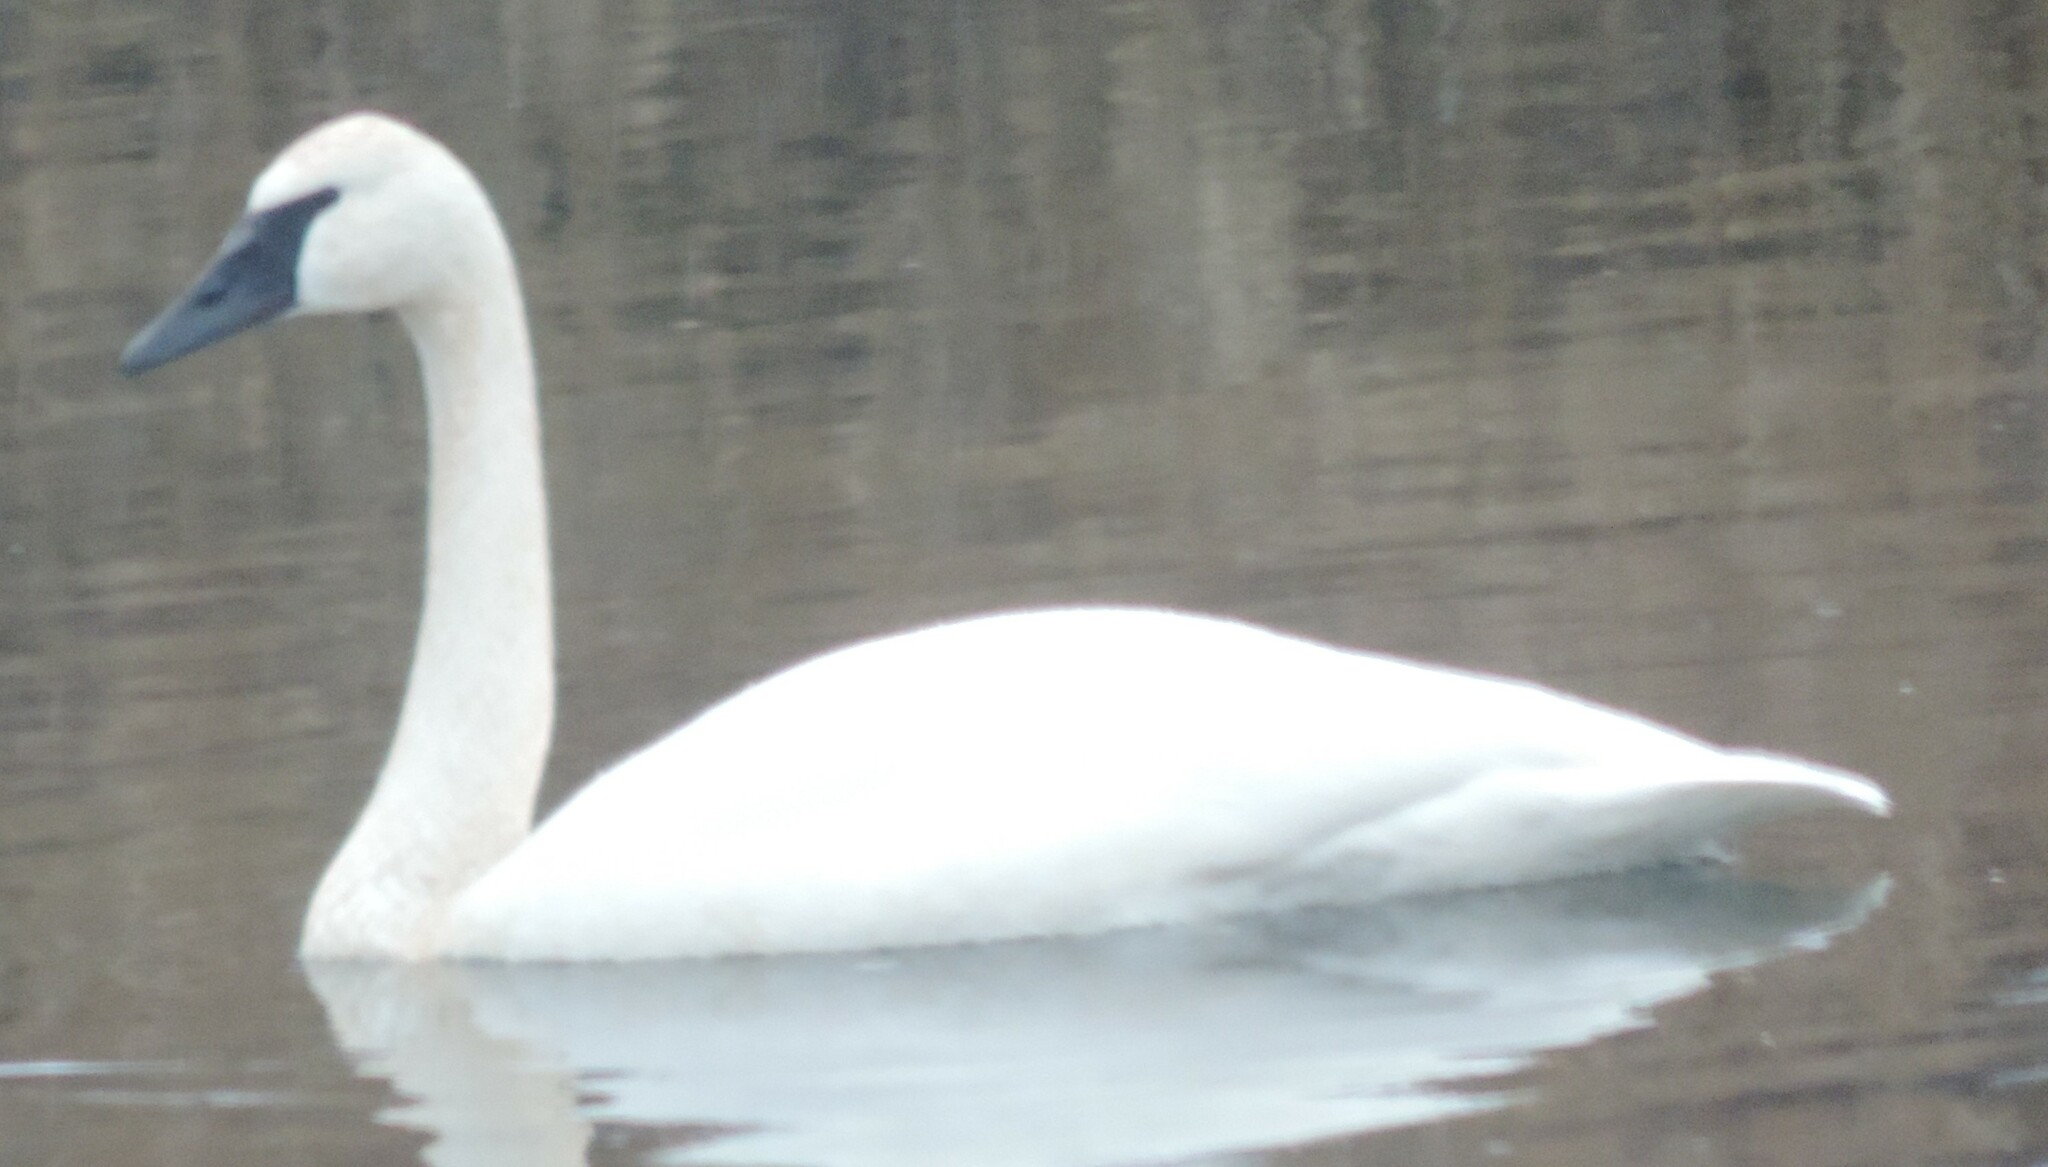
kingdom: Animalia
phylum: Chordata
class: Aves
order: Anseriformes
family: Anatidae
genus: Cygnus
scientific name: Cygnus buccinator
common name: Trumpeter swan
